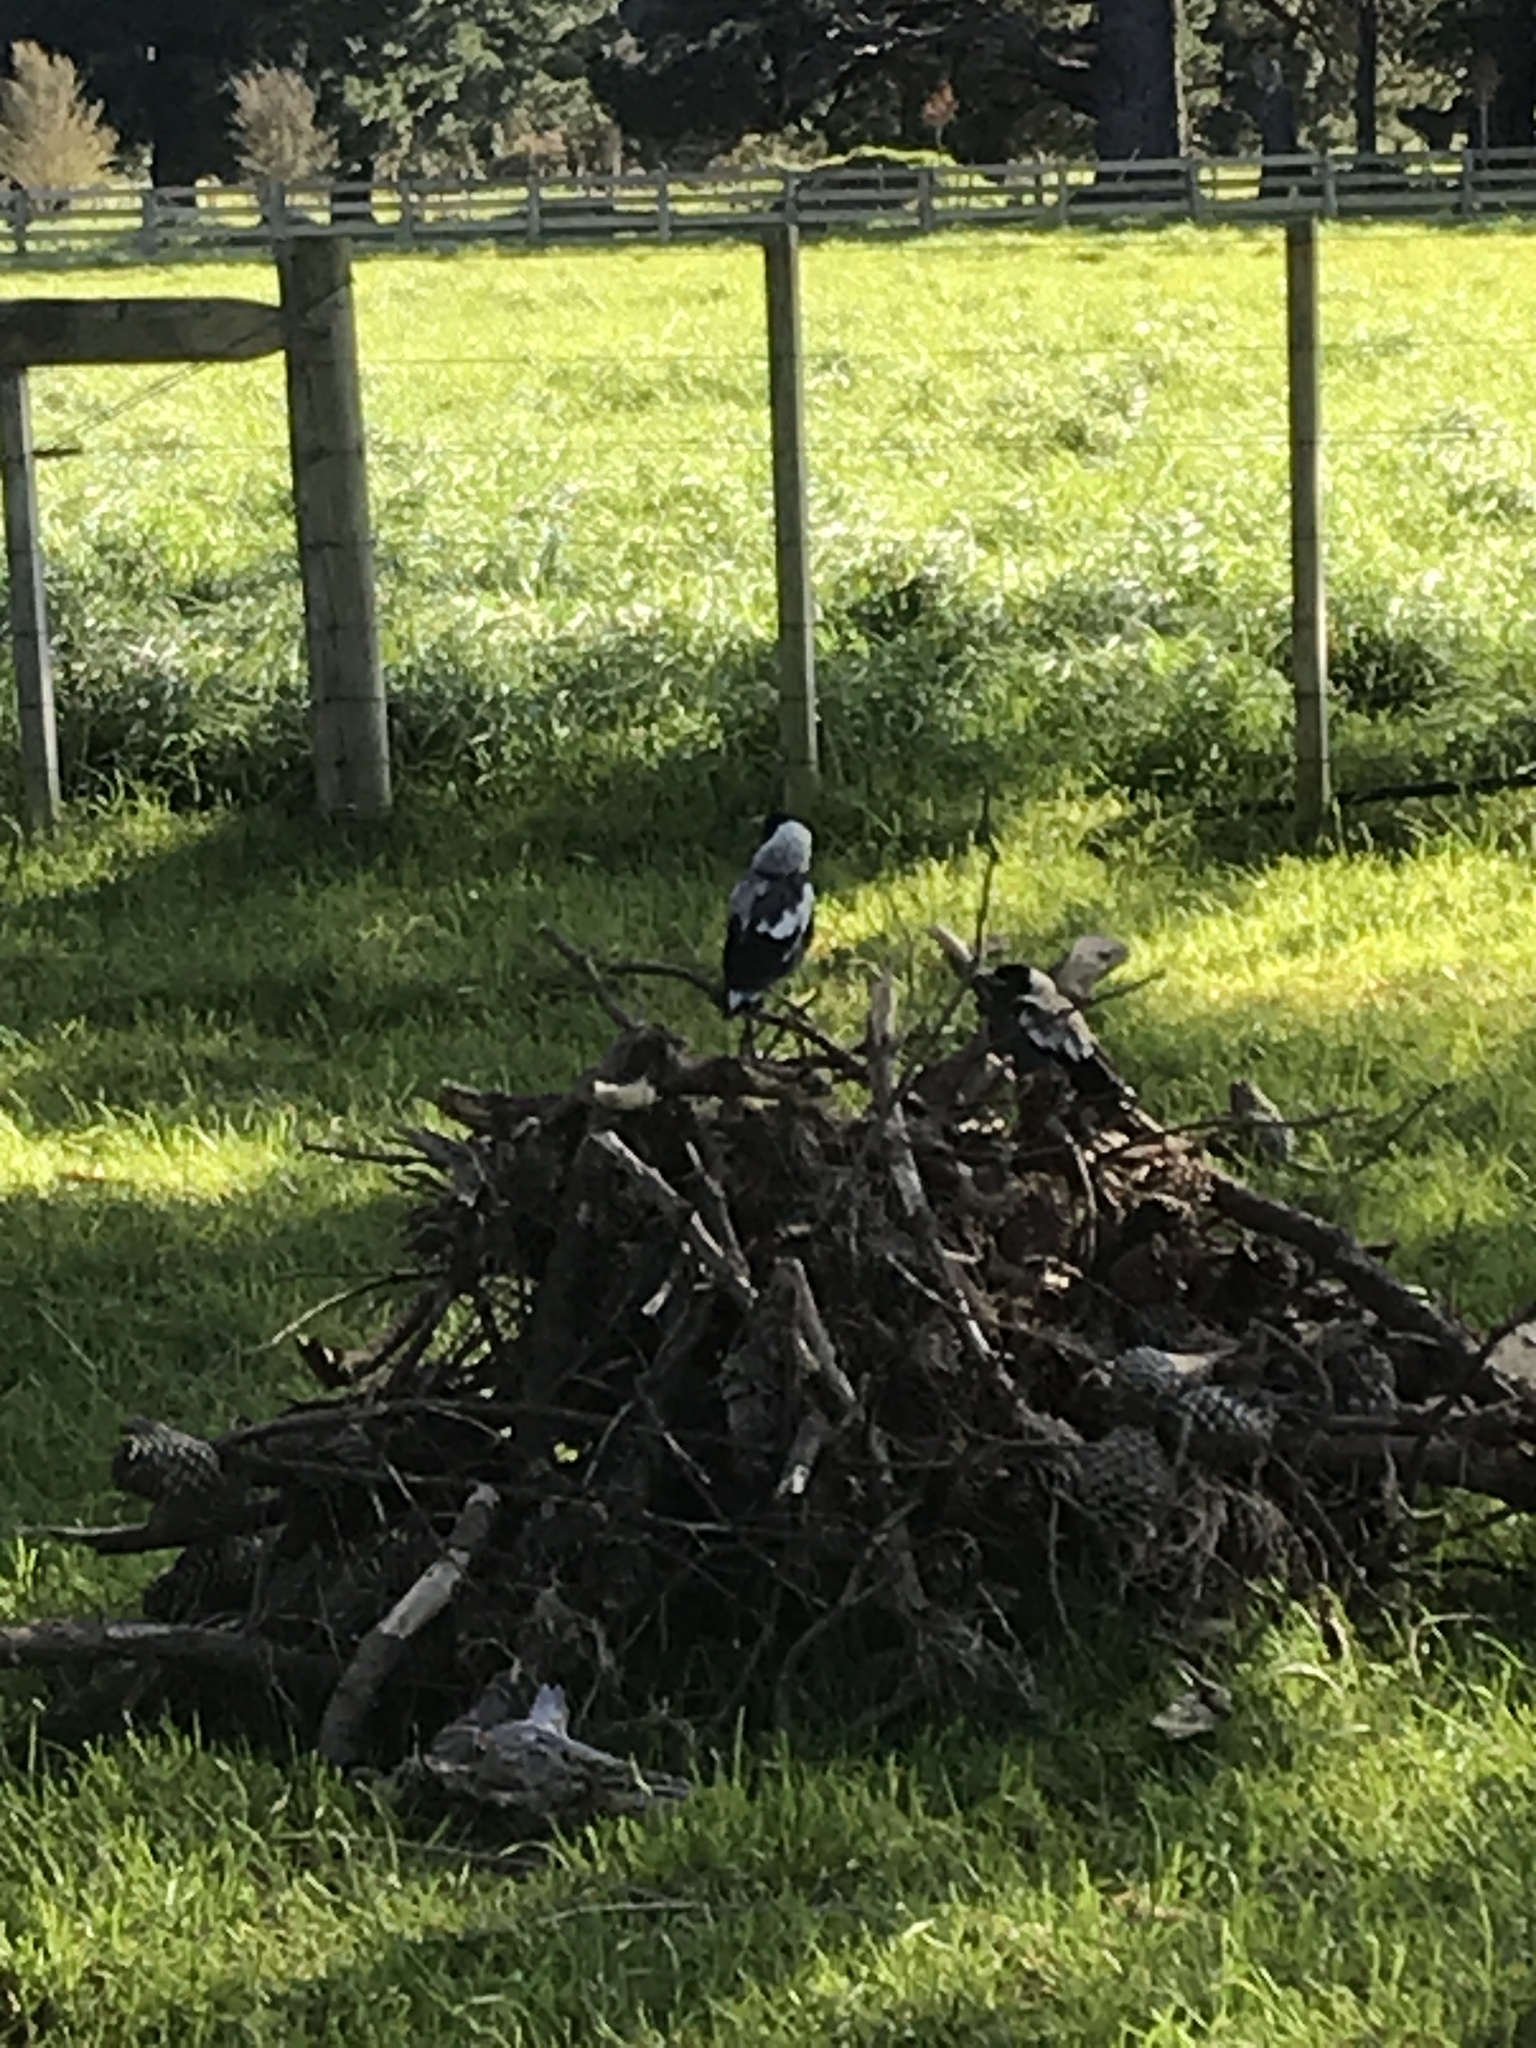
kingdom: Animalia
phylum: Chordata
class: Aves
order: Passeriformes
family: Cracticidae
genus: Gymnorhina
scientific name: Gymnorhina tibicen
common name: Australian magpie
